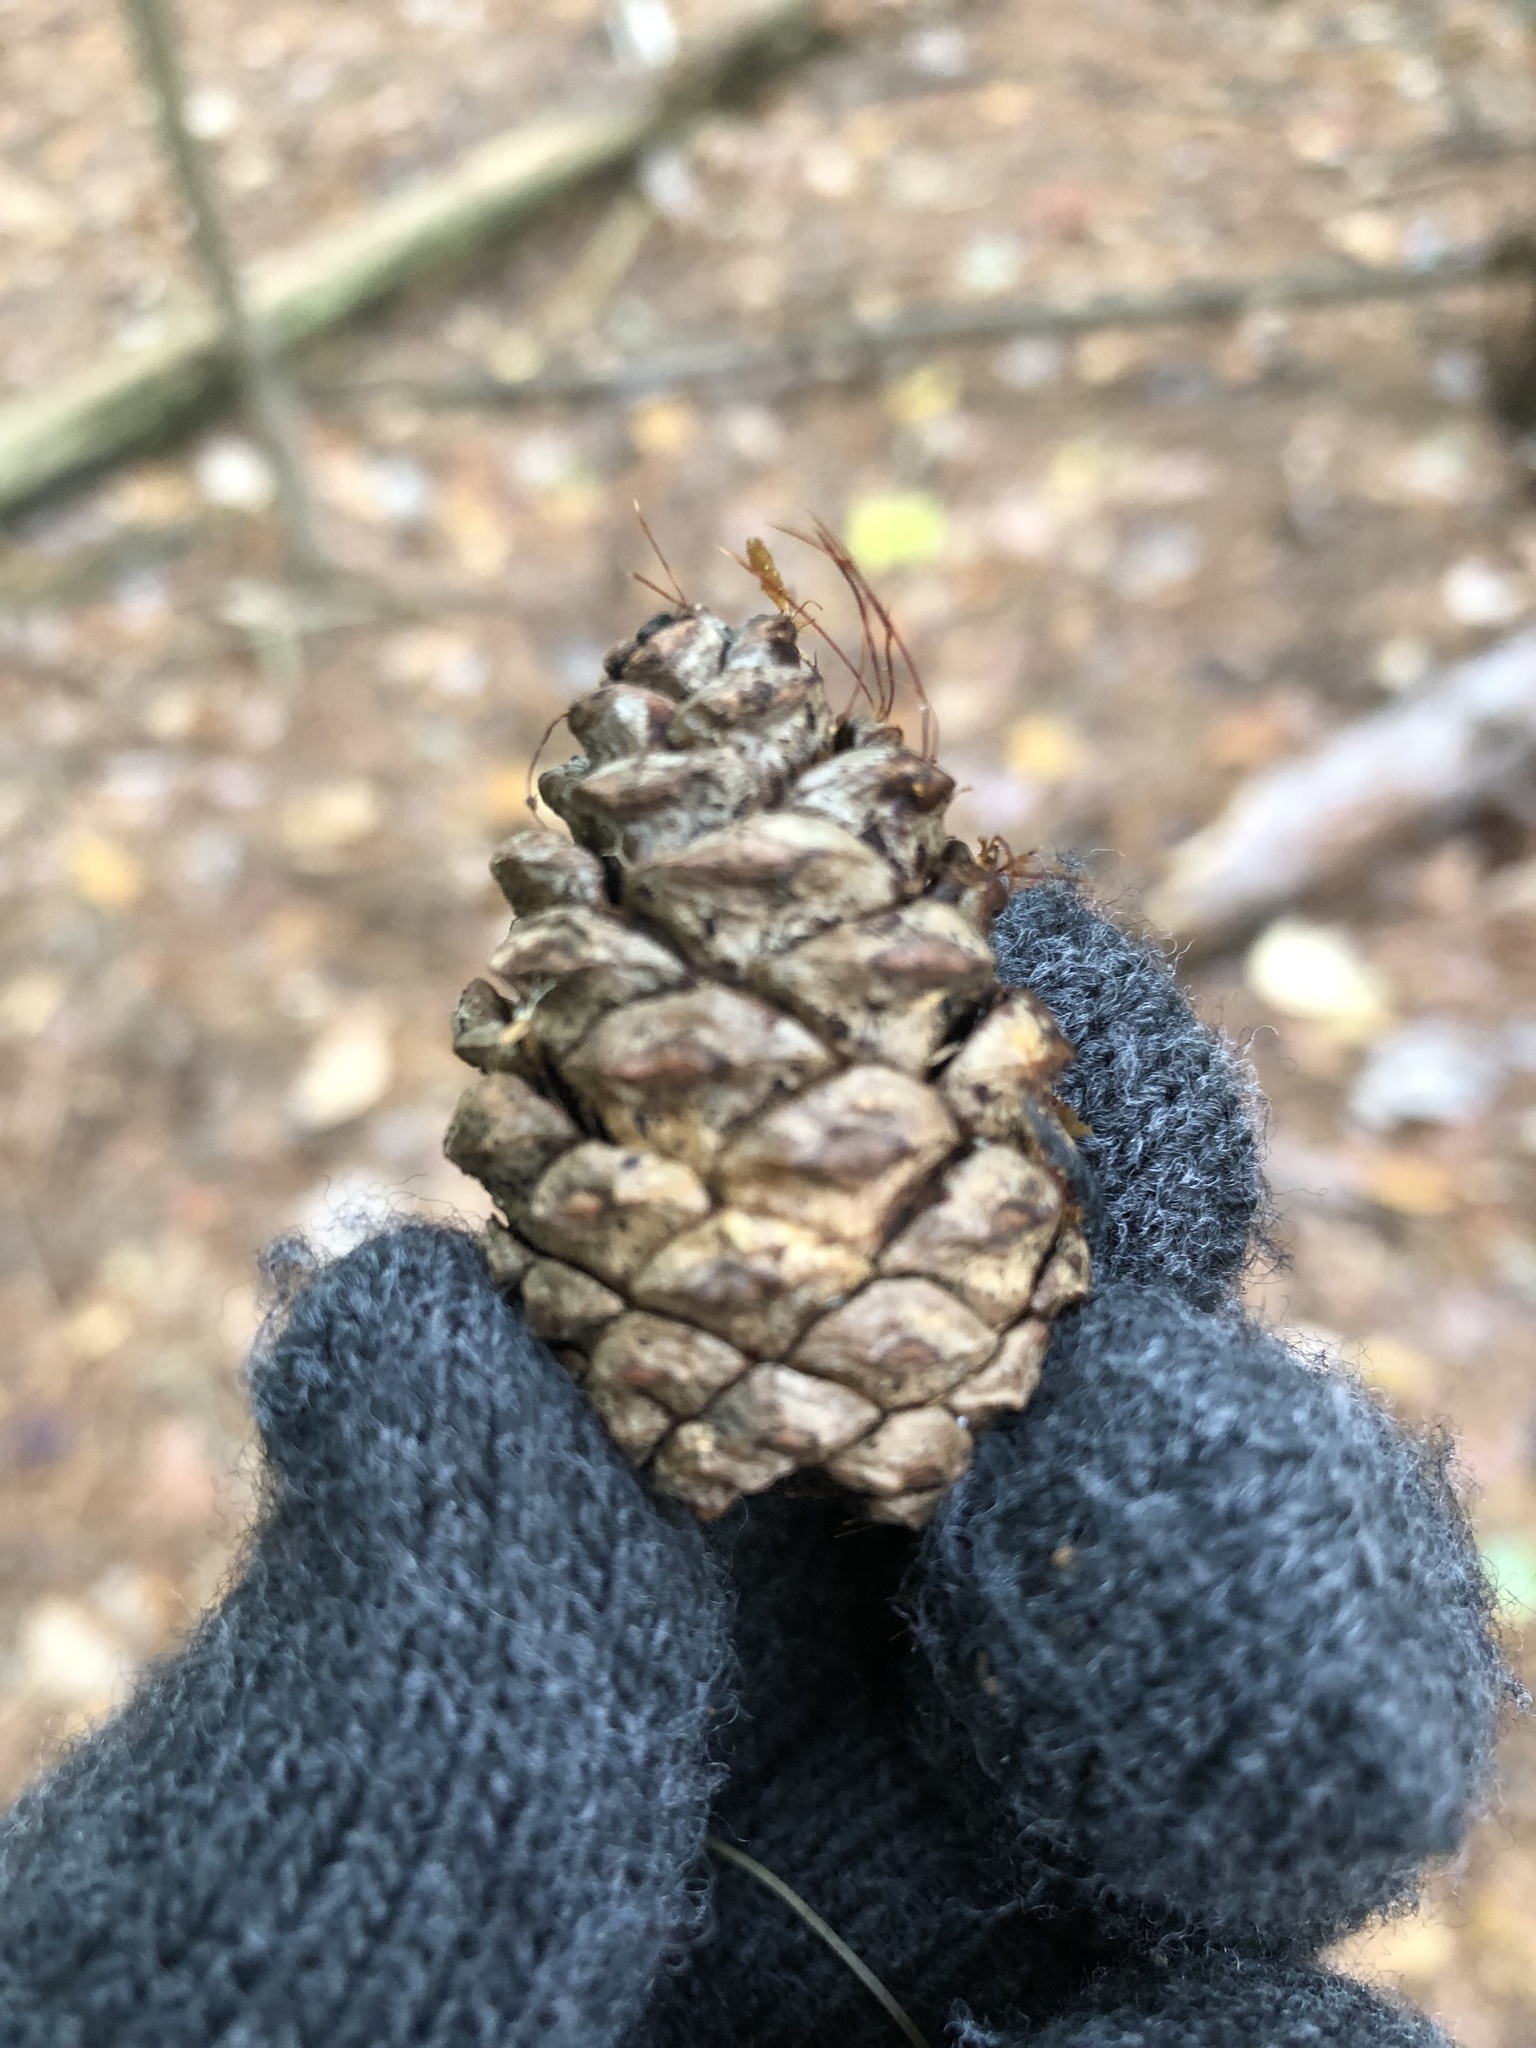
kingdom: Plantae
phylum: Tracheophyta
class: Pinopsida
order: Pinales
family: Pinaceae
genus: Pinus
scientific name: Pinus resinosa
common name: Norway pine
